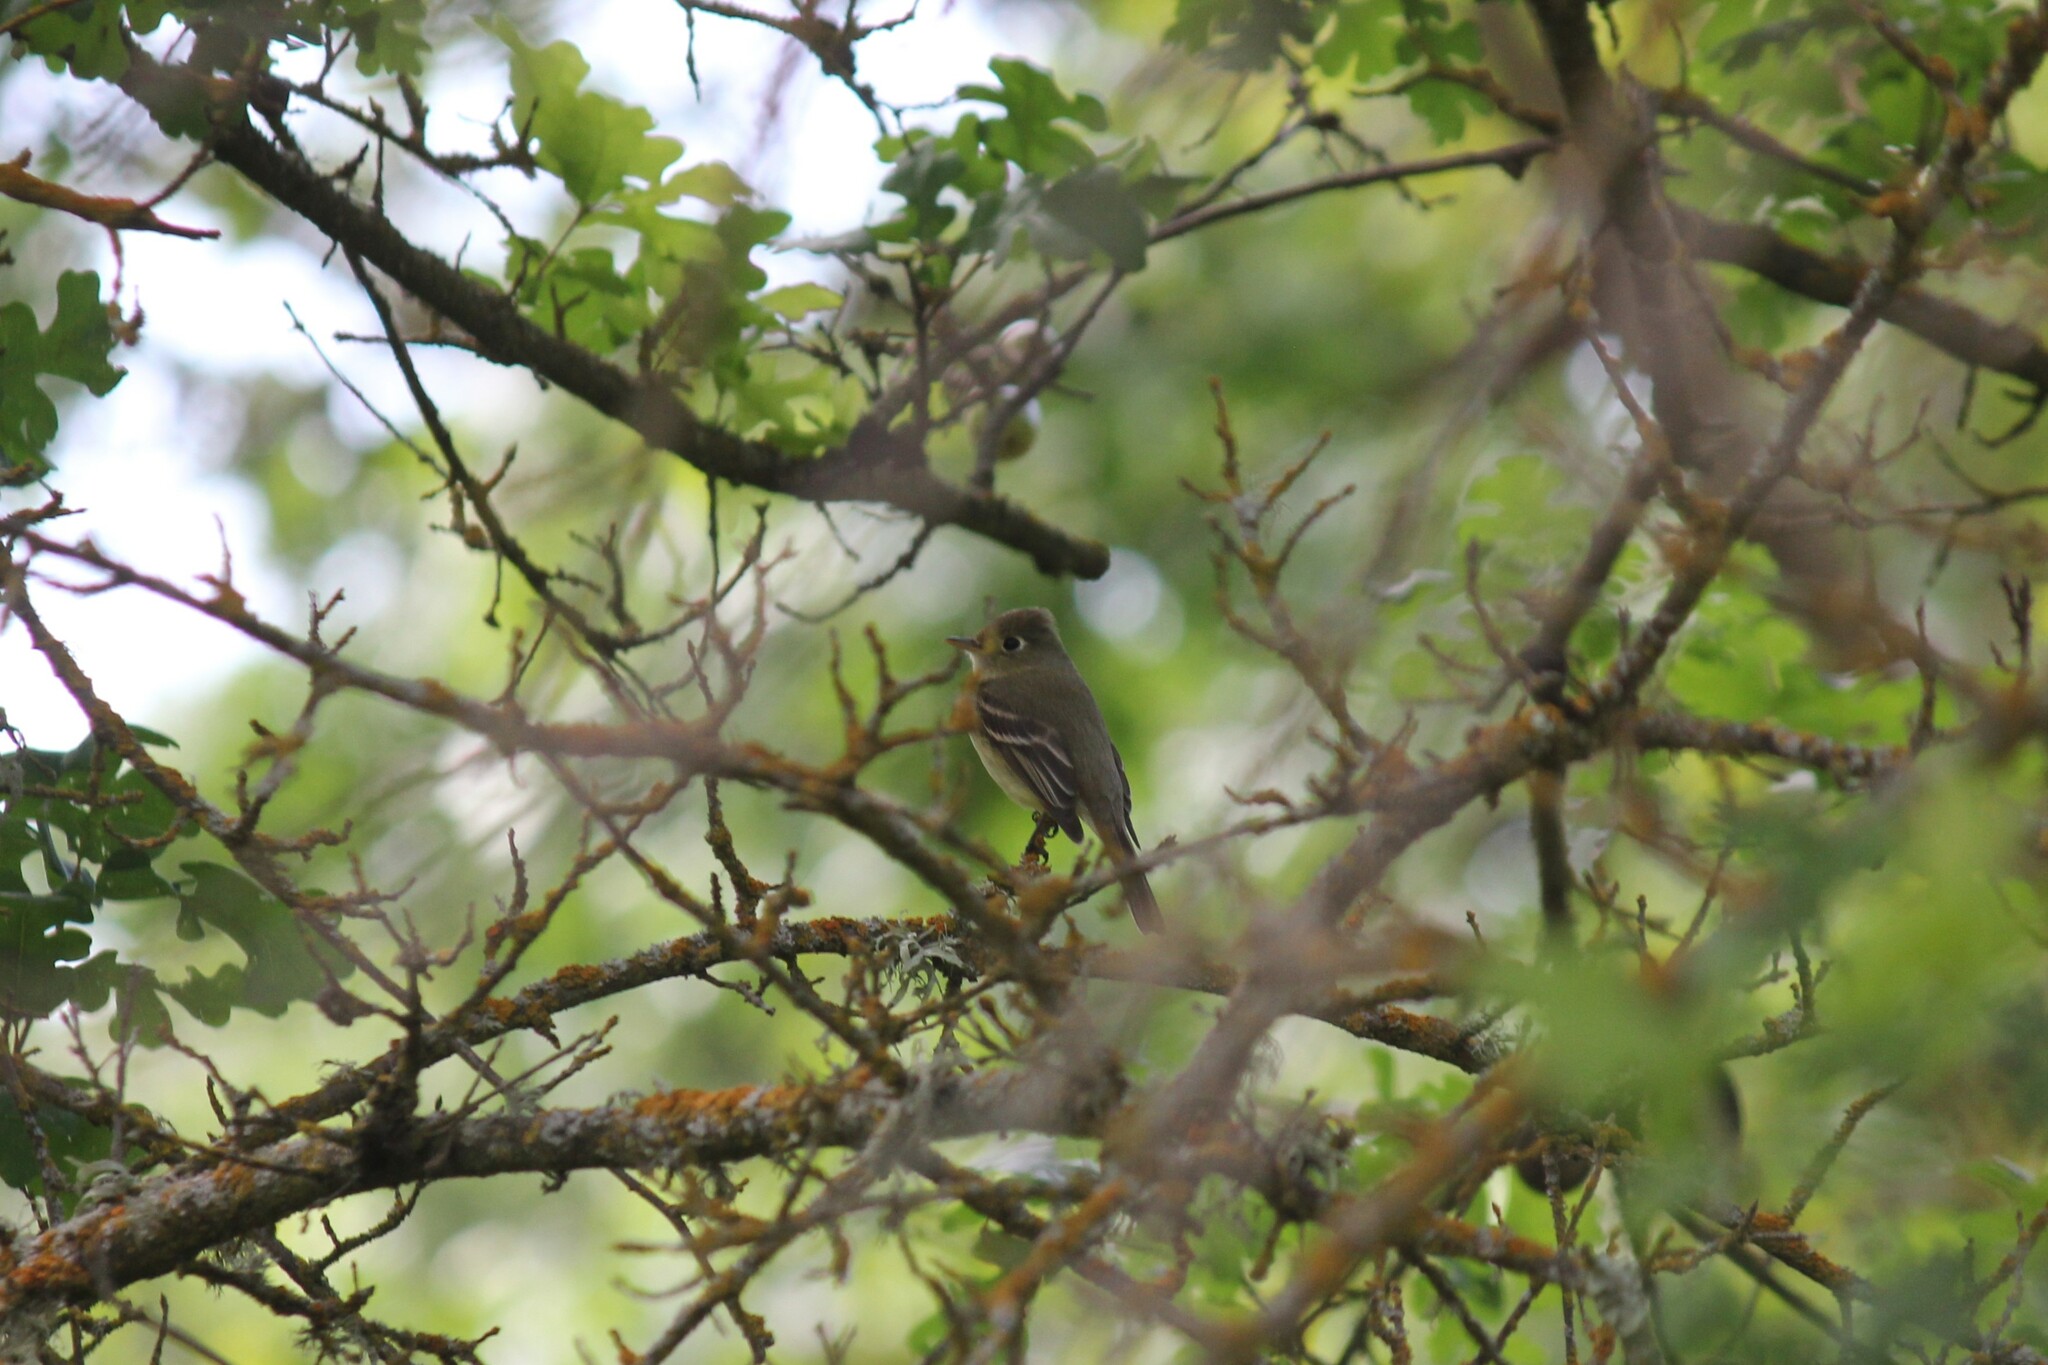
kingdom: Animalia
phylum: Chordata
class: Aves
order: Passeriformes
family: Tyrannidae
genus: Empidonax
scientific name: Empidonax difficilis
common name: Pacific-slope flycatcher
